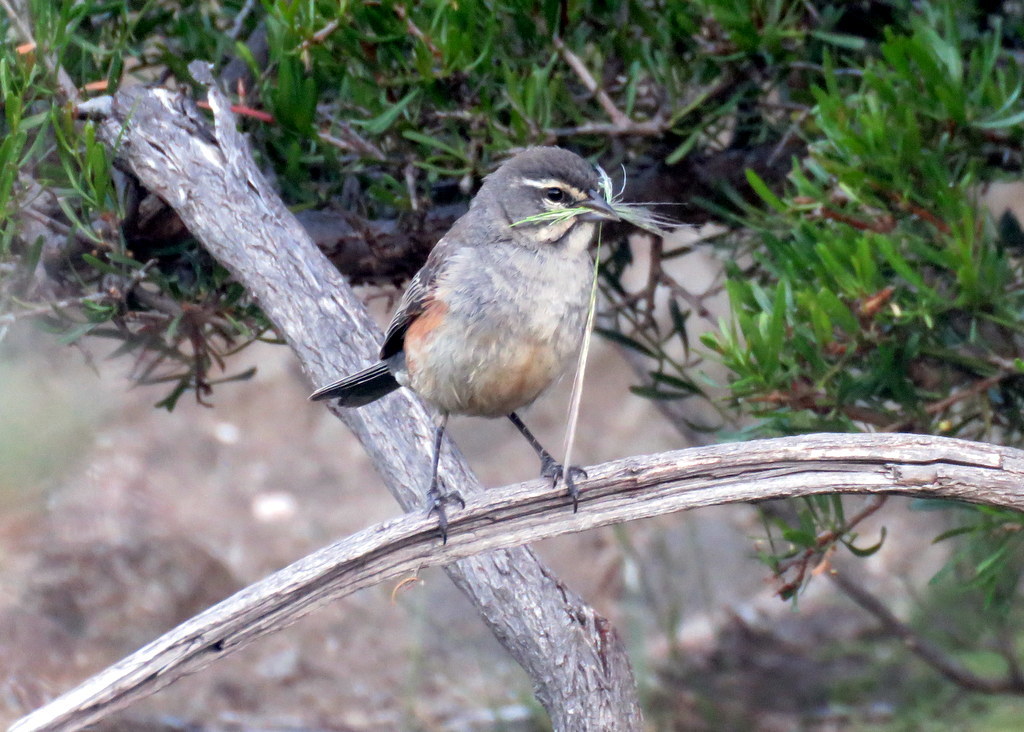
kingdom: Animalia
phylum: Chordata
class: Aves
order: Passeriformes
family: Thraupidae
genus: Poospizopsis
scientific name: Poospizopsis hypocondria
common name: Rufous-sided warbling-finch
